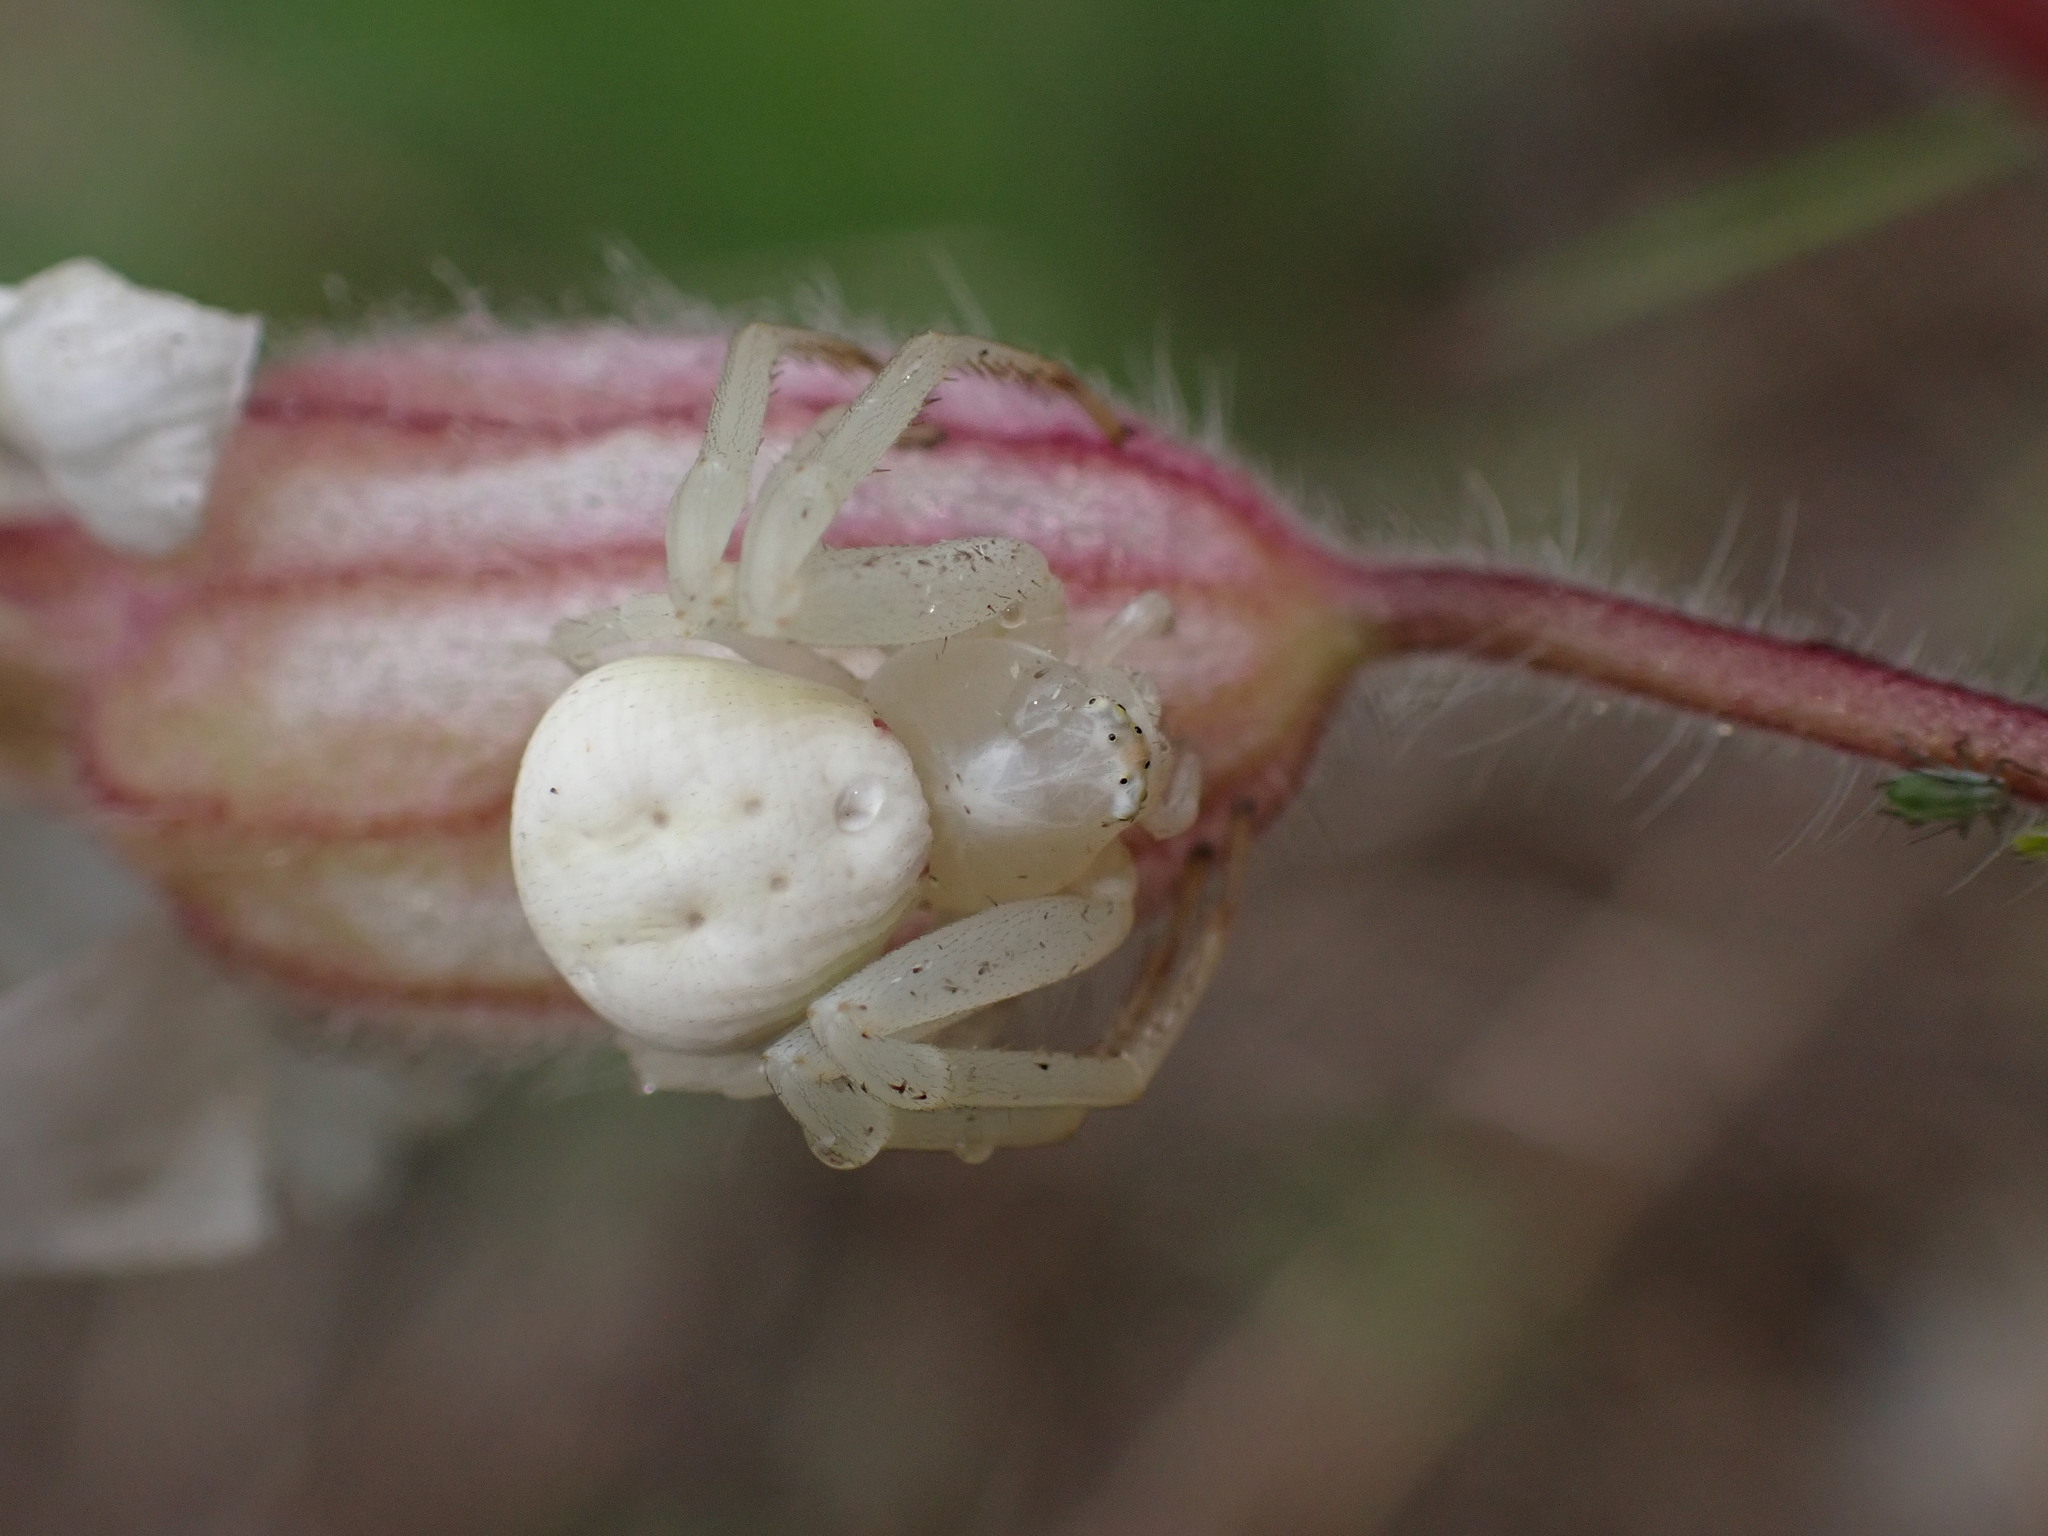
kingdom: Animalia
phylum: Arthropoda
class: Arachnida
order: Araneae
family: Thomisidae
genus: Misumena
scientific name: Misumena vatia
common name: Goldenrod crab spider
